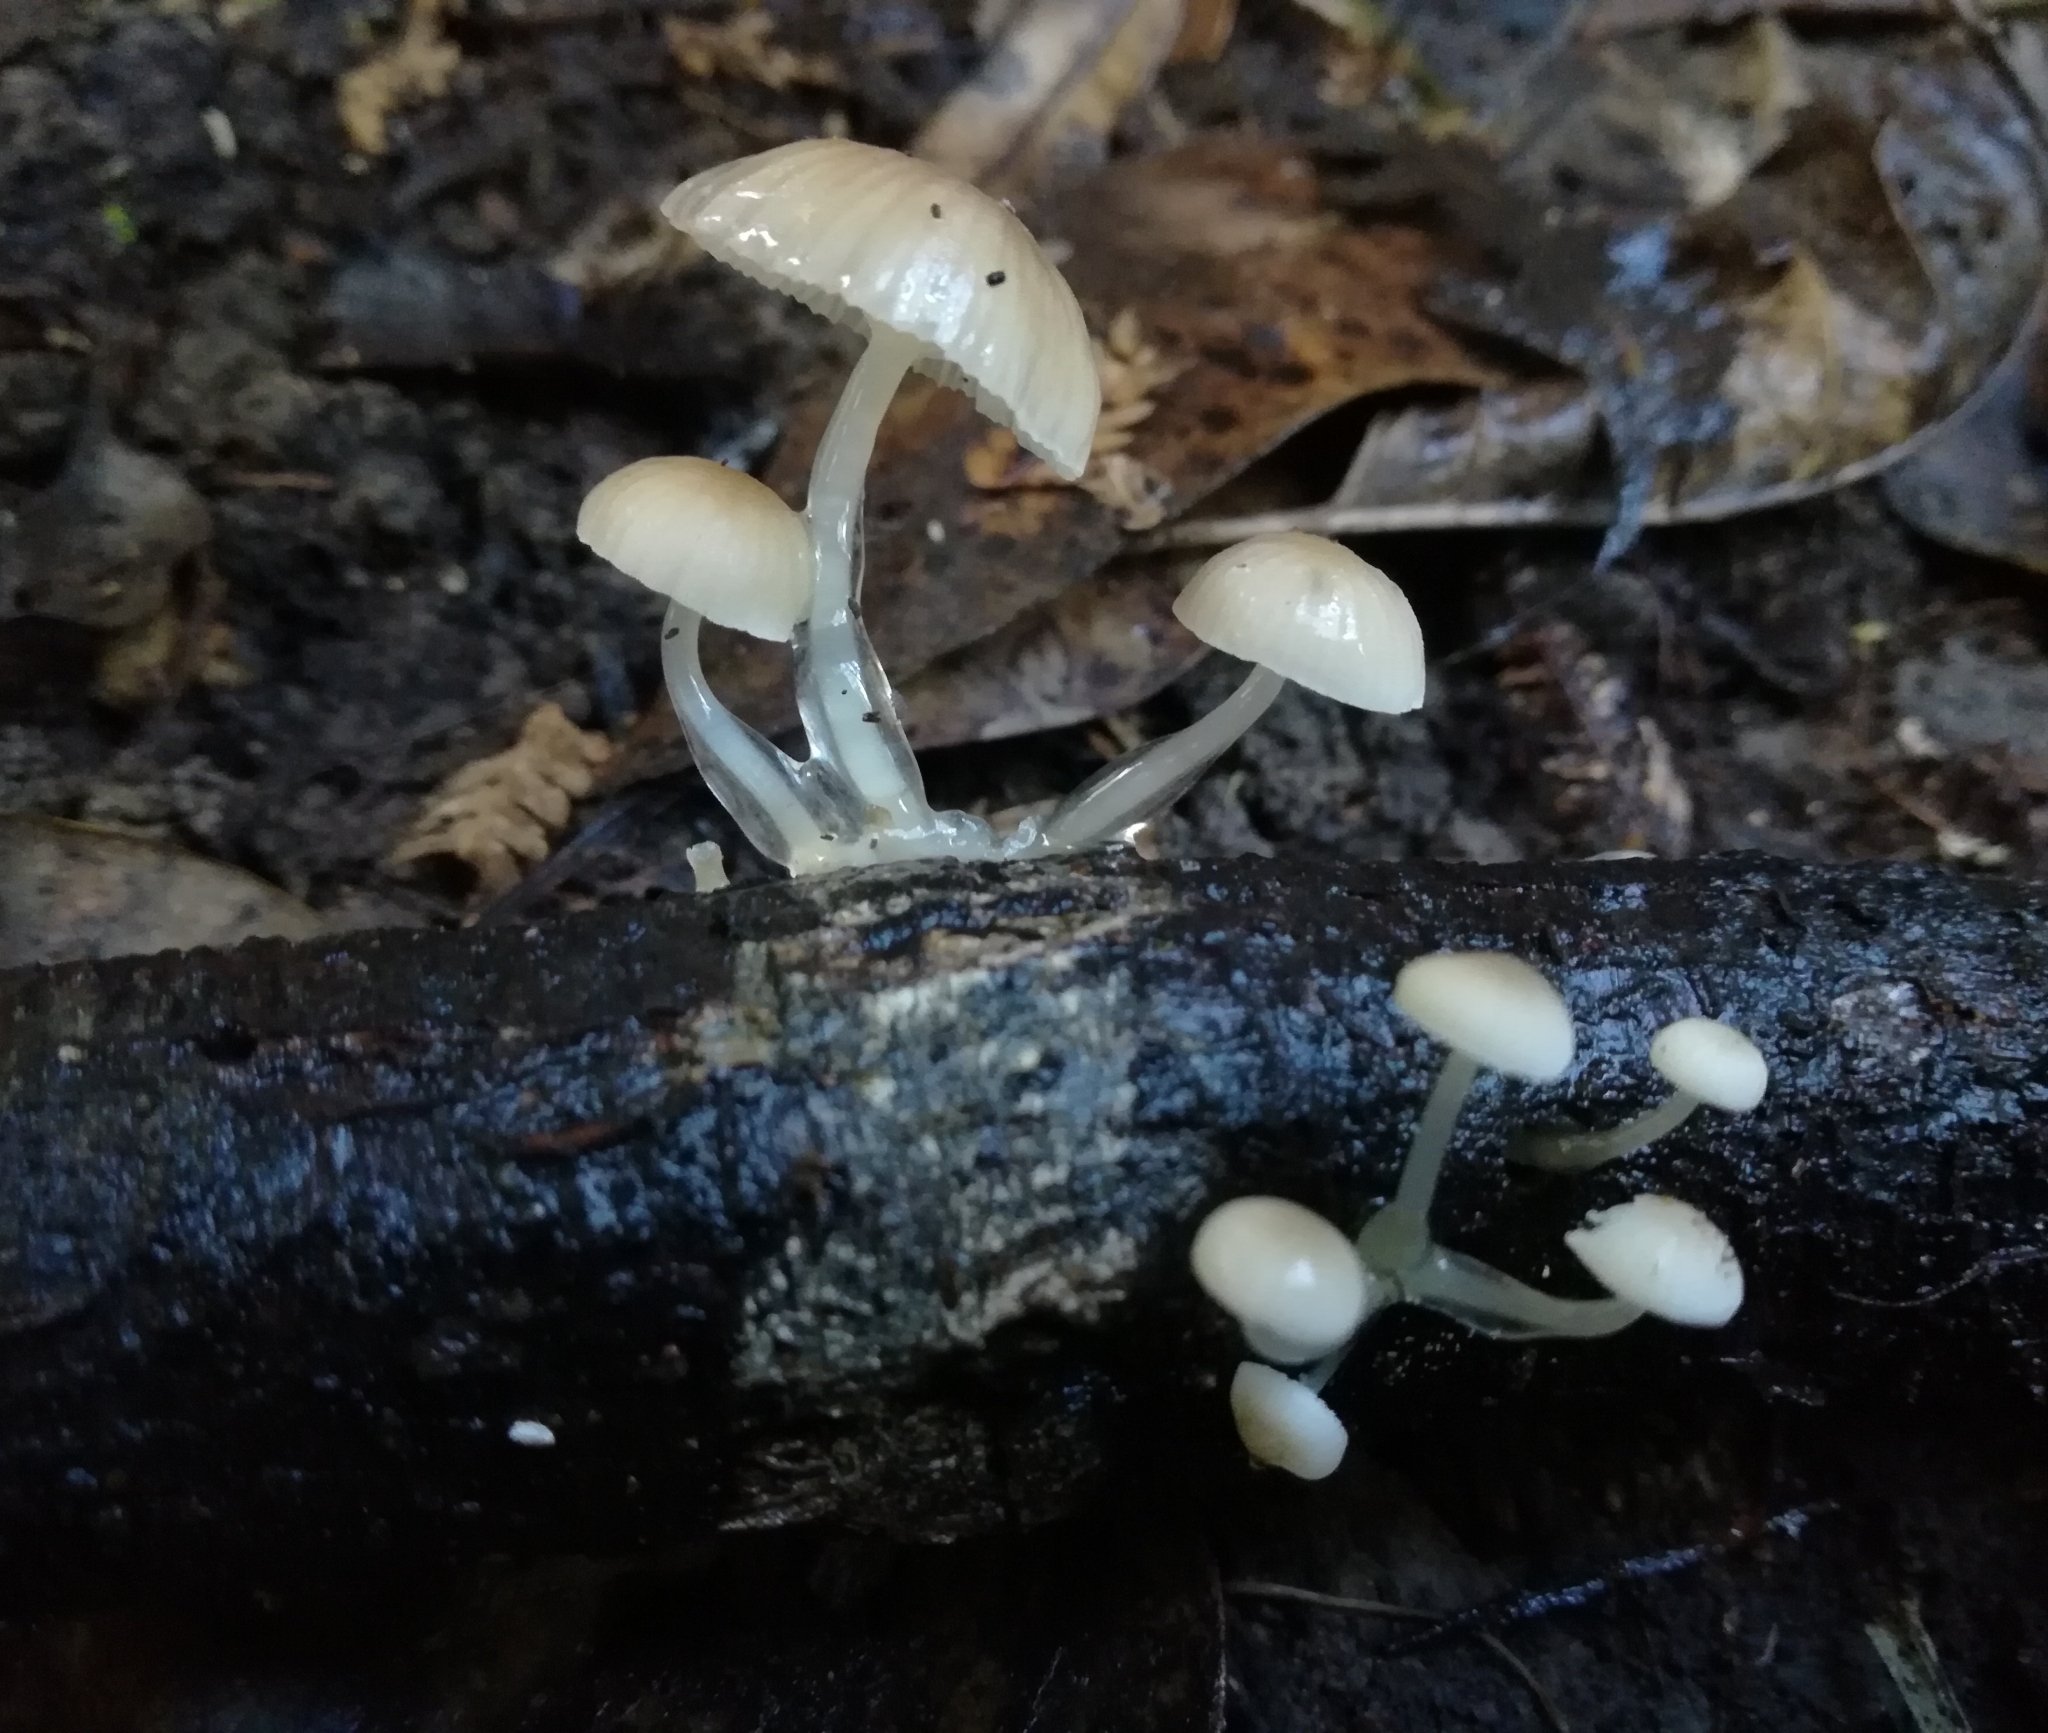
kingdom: Fungi
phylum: Basidiomycota
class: Agaricomycetes
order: Agaricales
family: Mycenaceae
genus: Roridomyces
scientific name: Roridomyces austrororidus
